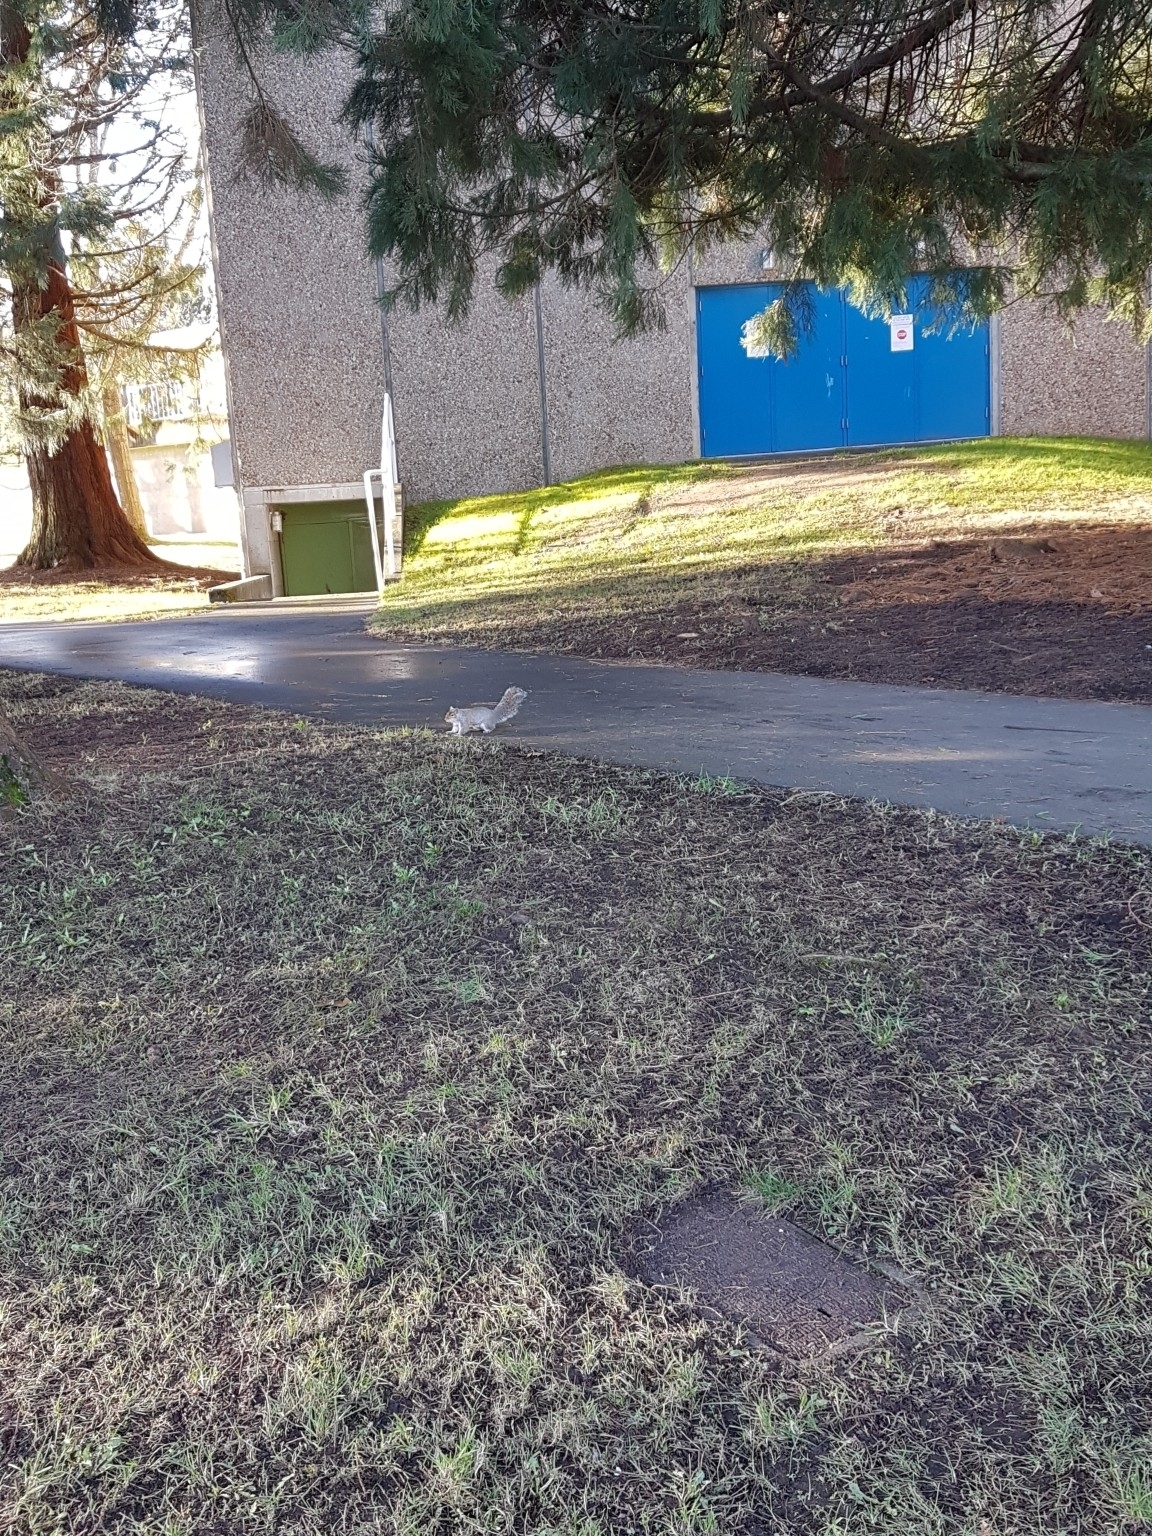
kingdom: Animalia
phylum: Chordata
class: Mammalia
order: Rodentia
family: Sciuridae
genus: Sciurus
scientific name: Sciurus carolinensis
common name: Eastern gray squirrel
